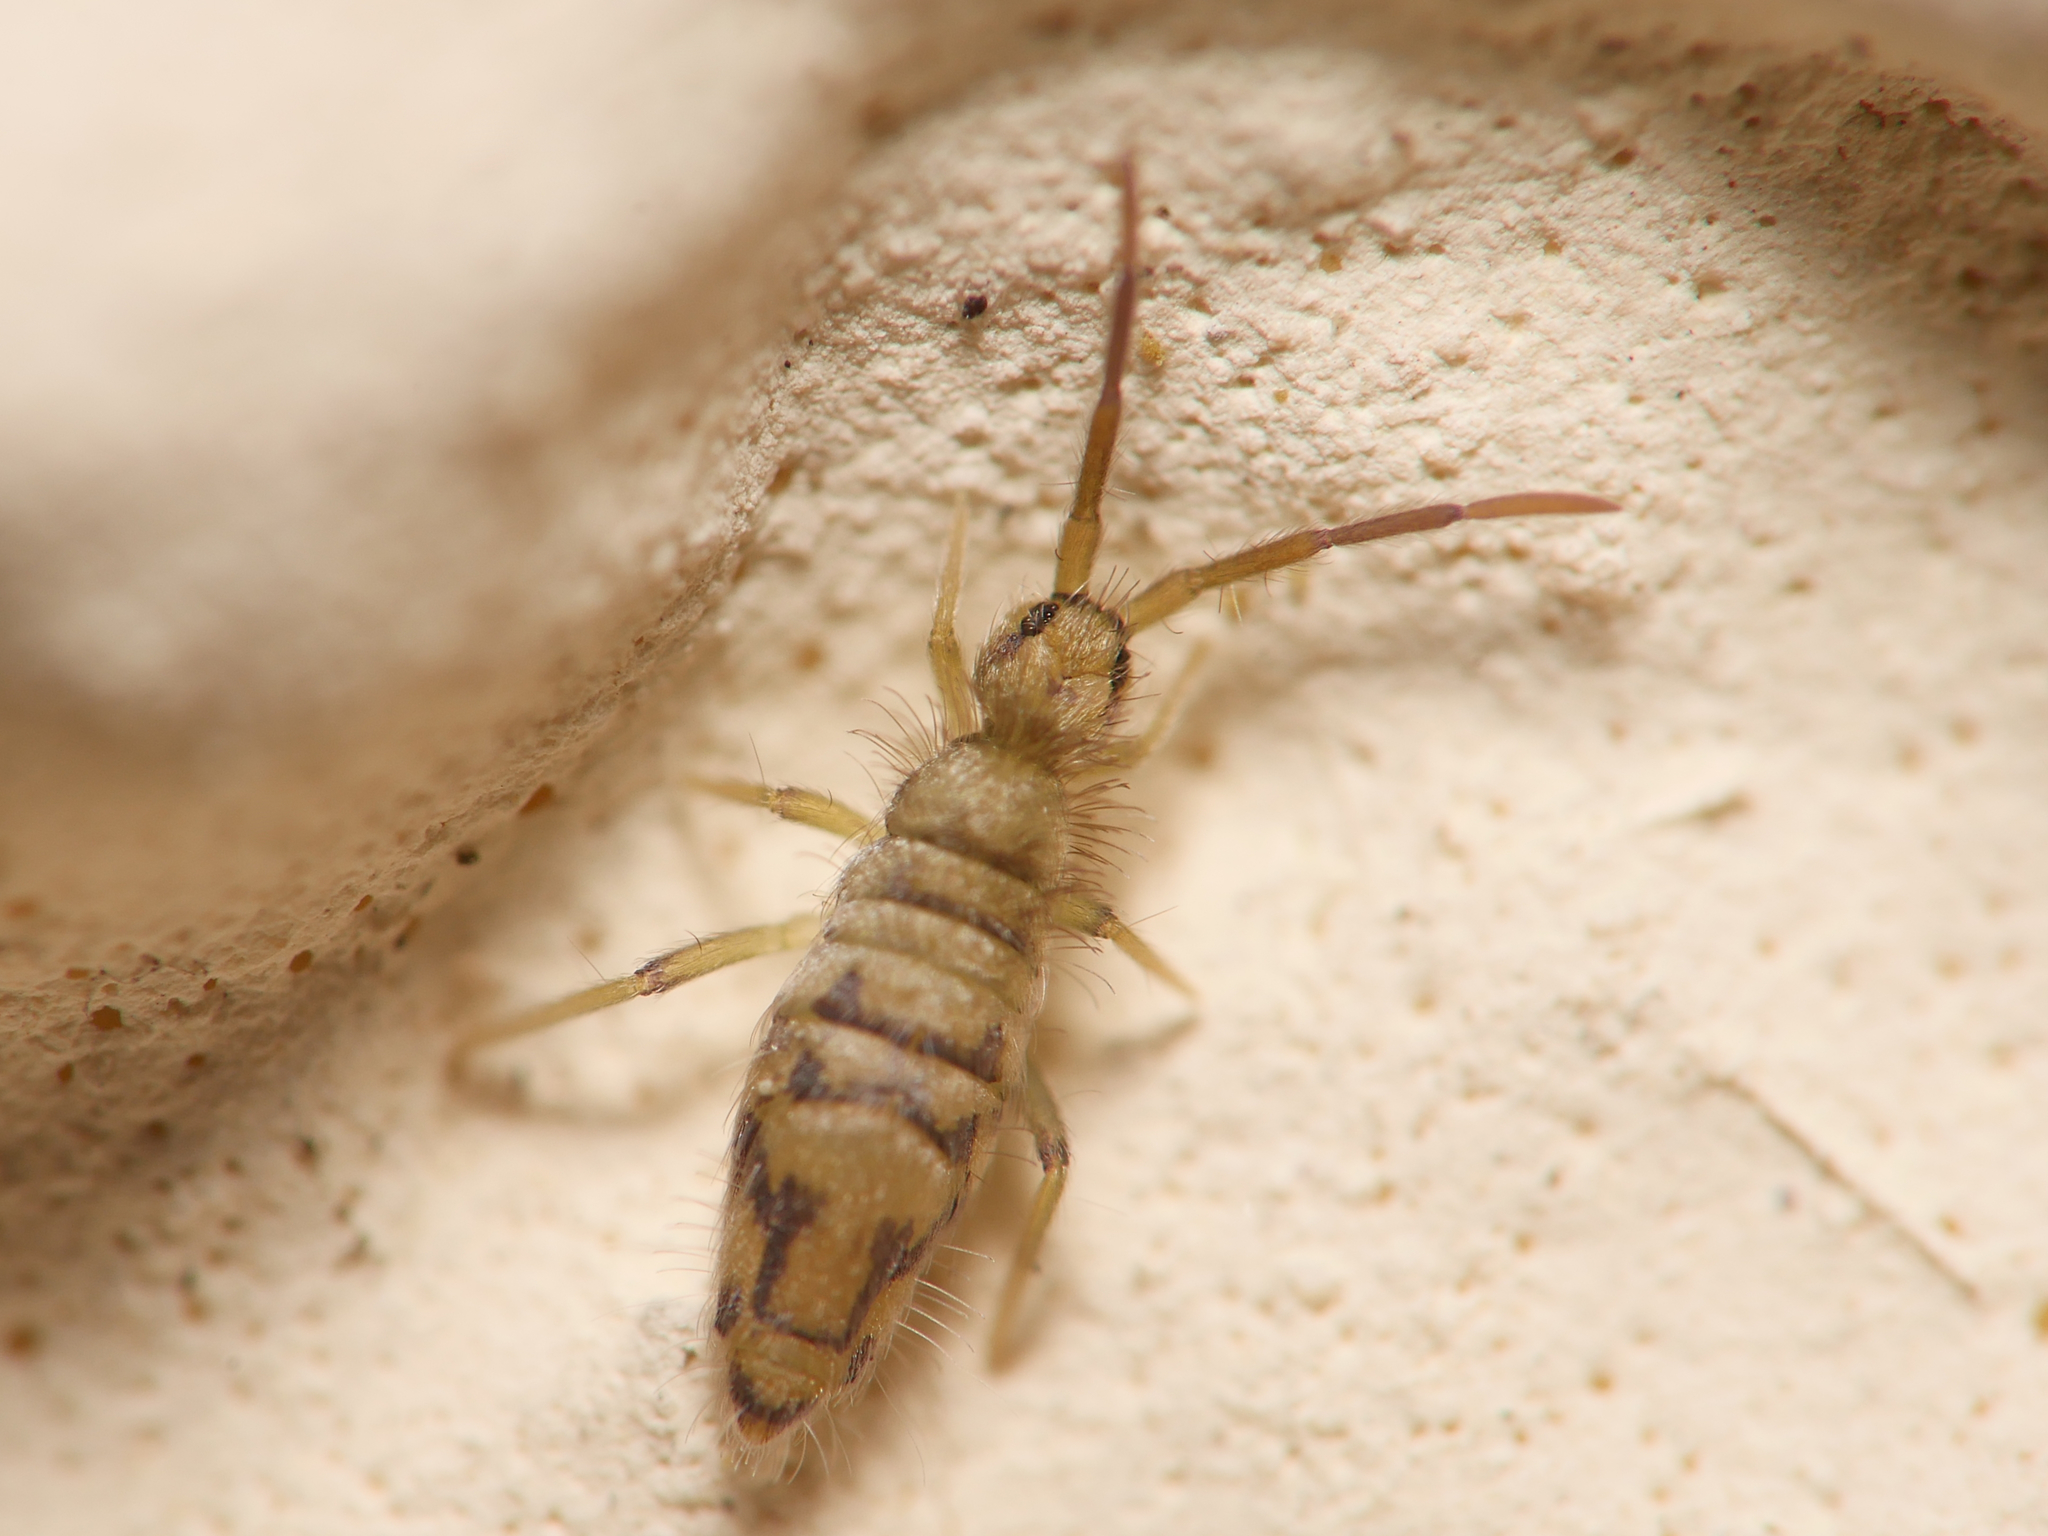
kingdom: Animalia
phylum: Arthropoda
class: Collembola
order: Entomobryomorpha
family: Entomobryidae
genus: Entomobrya
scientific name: Entomobrya nivalis
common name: Cosmopolitan springtail
